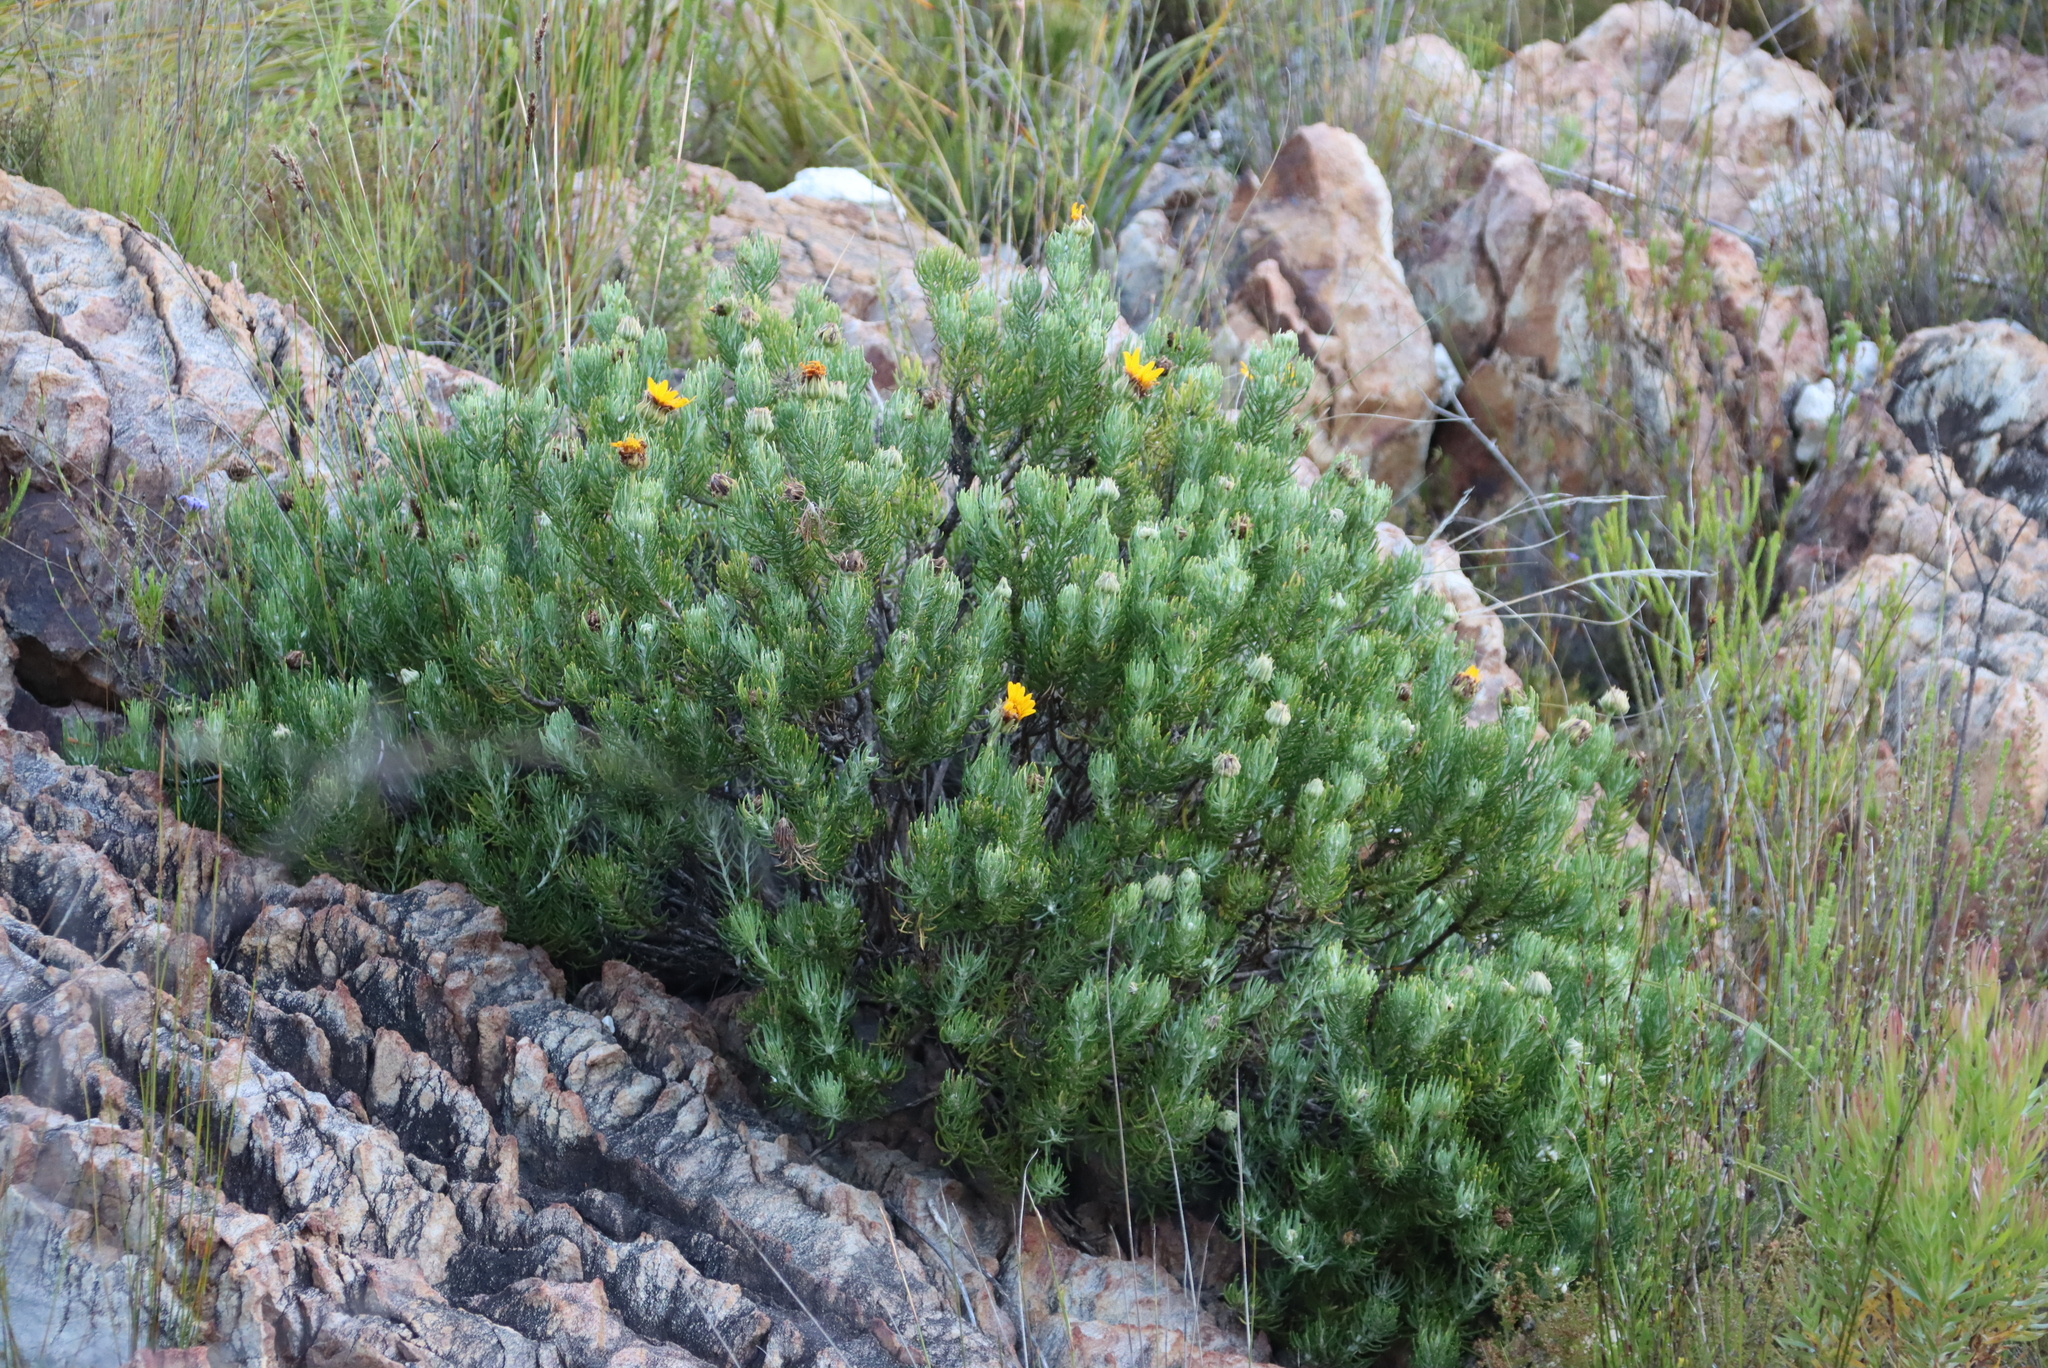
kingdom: Plantae
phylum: Tracheophyta
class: Magnoliopsida
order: Asterales
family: Asteraceae
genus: Heterolepis
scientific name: Heterolepis aliena
